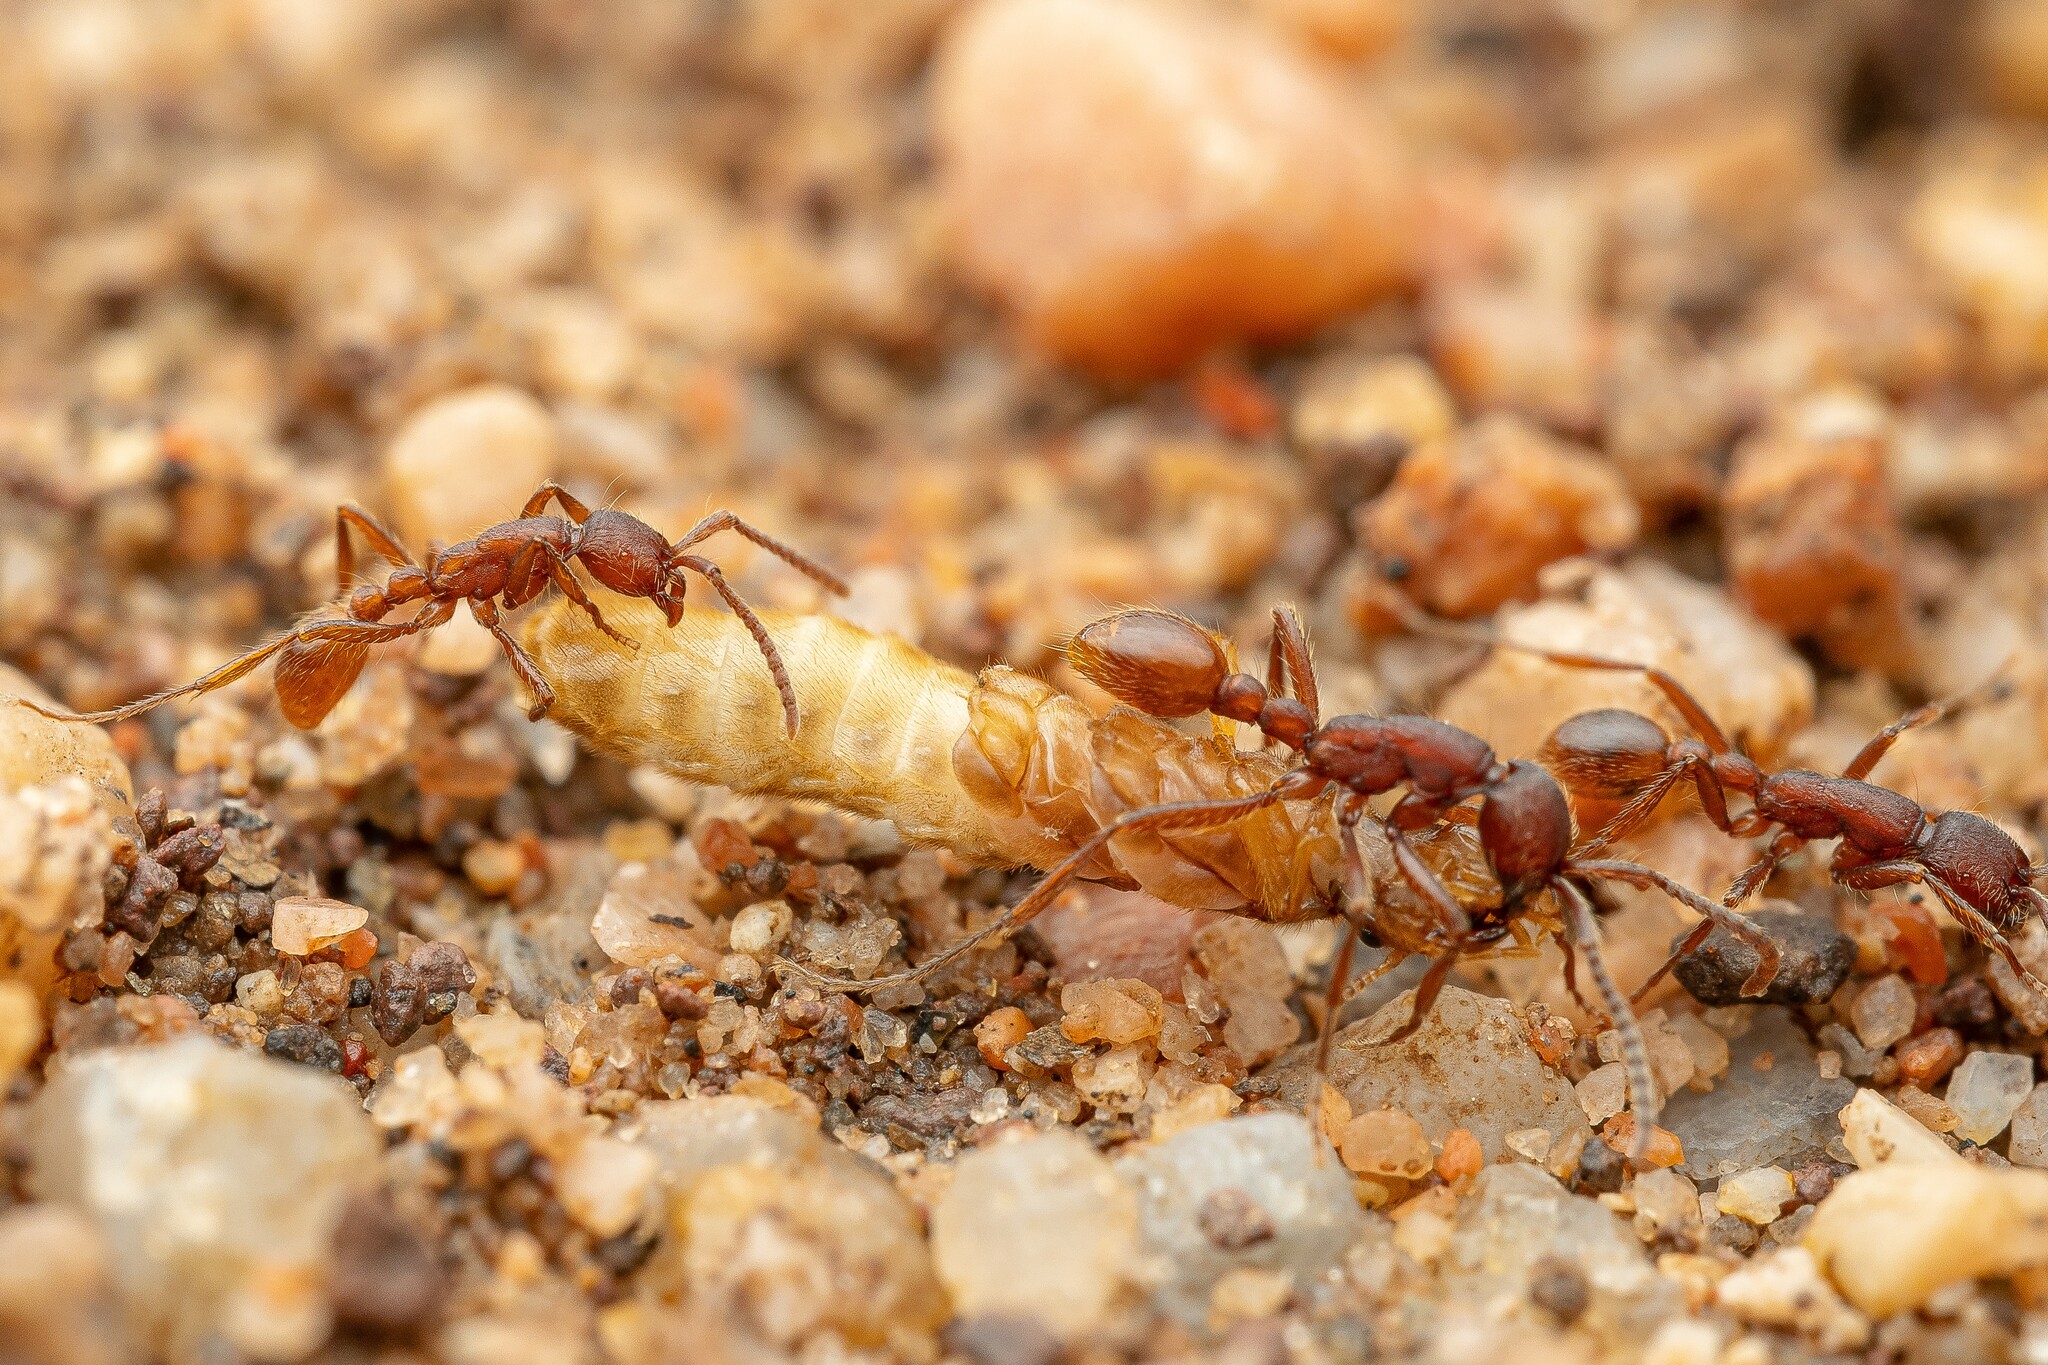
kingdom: Animalia
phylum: Arthropoda
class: Insecta
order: Hymenoptera
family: Formicidae
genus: Neivamyrmex
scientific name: Neivamyrmex nigrescens
